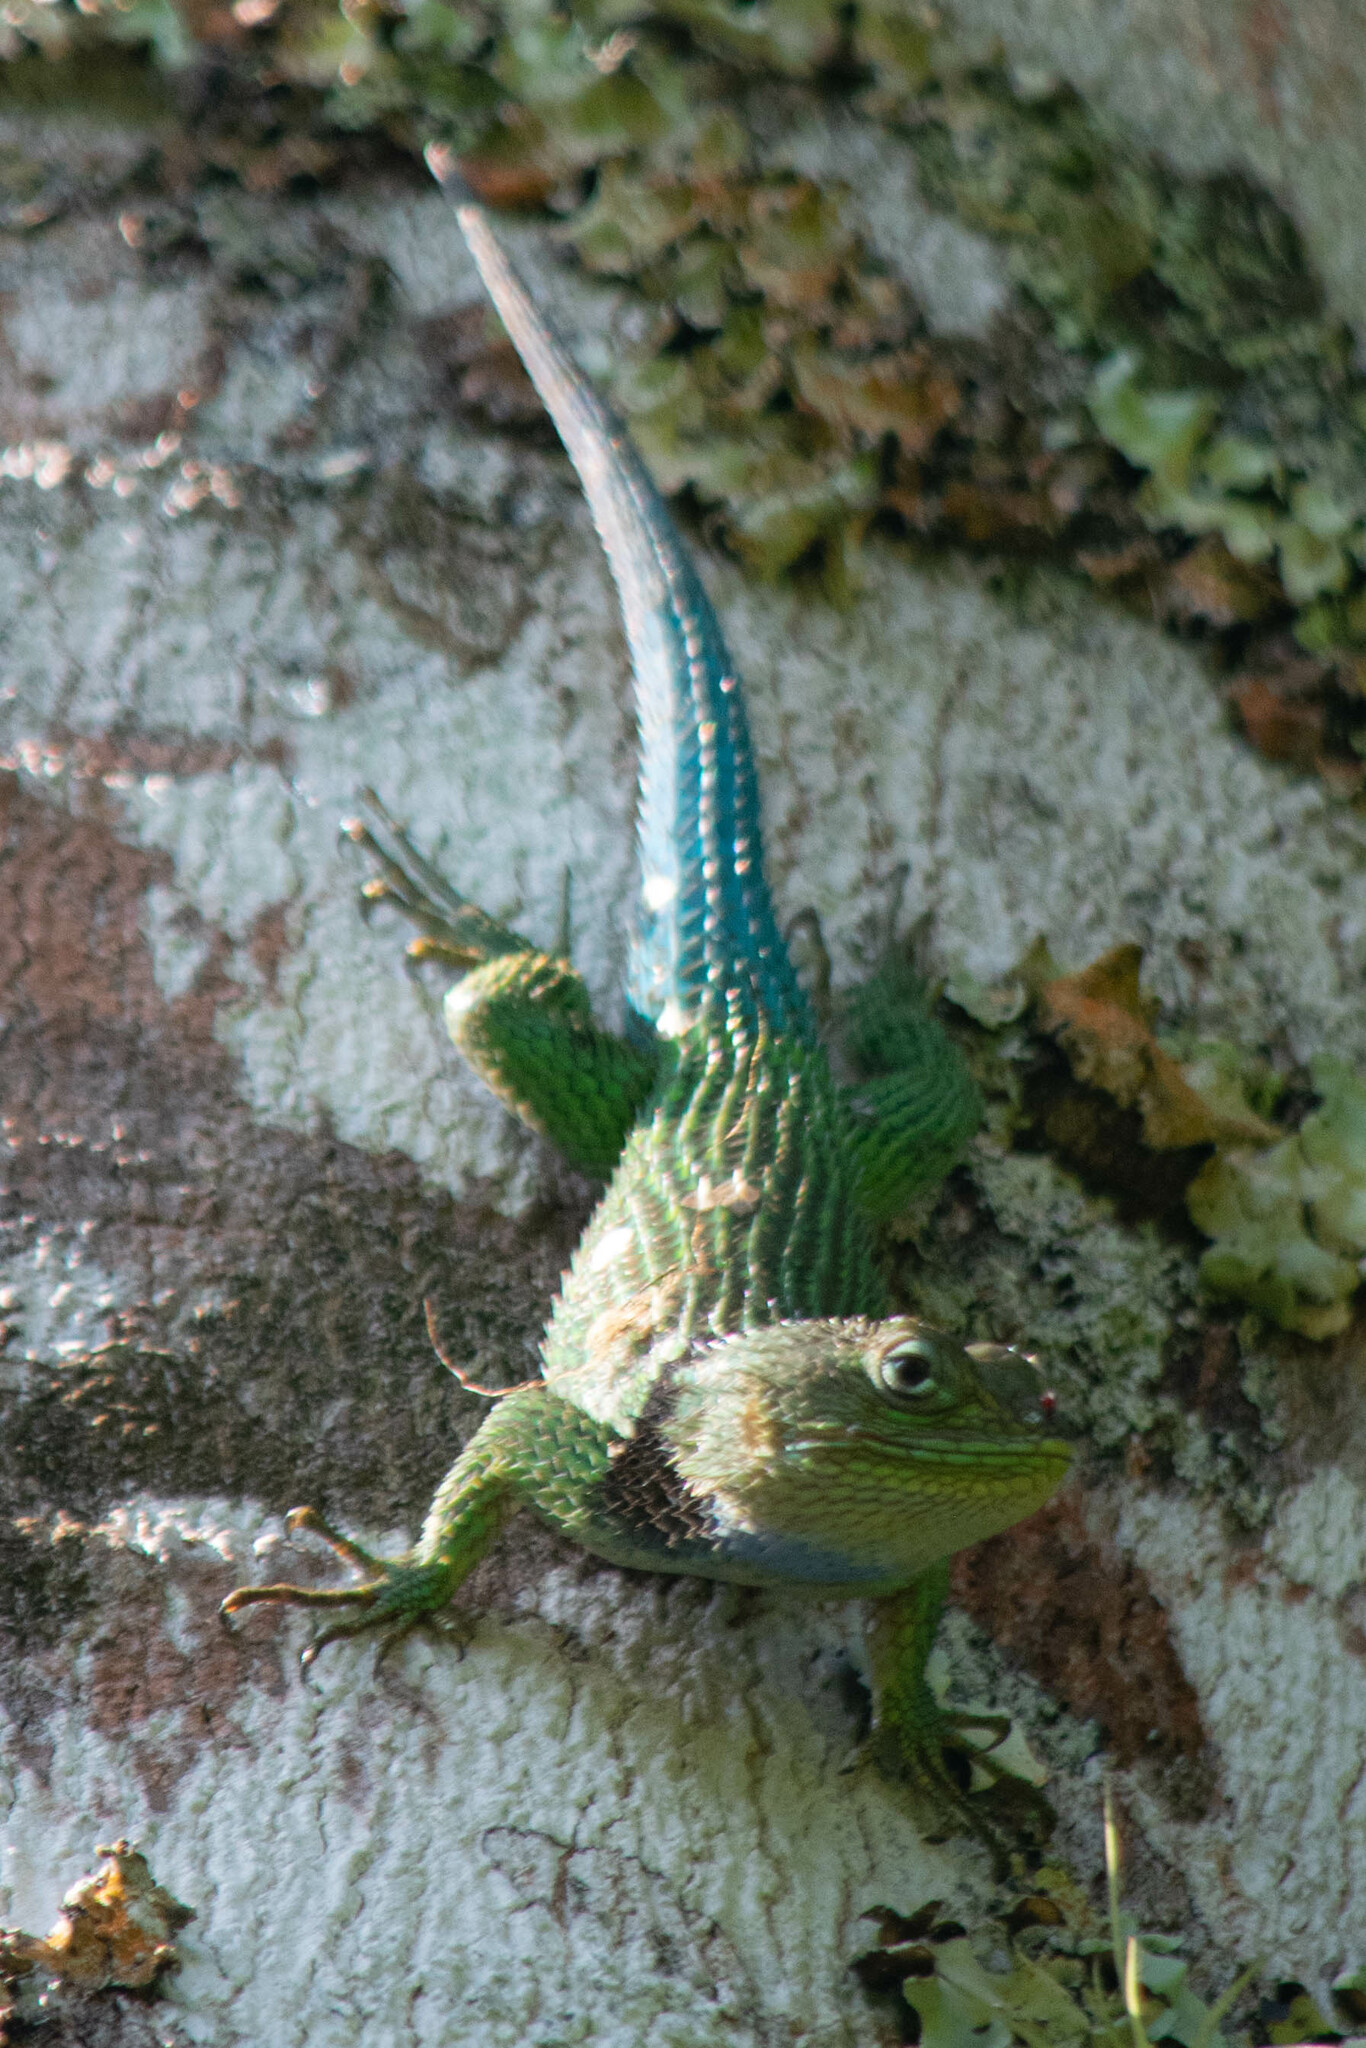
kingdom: Animalia
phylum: Chordata
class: Squamata
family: Phrynosomatidae
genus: Sceloporus
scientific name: Sceloporus stejnegeri
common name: Stejneger's blackcollar spiny lizard
